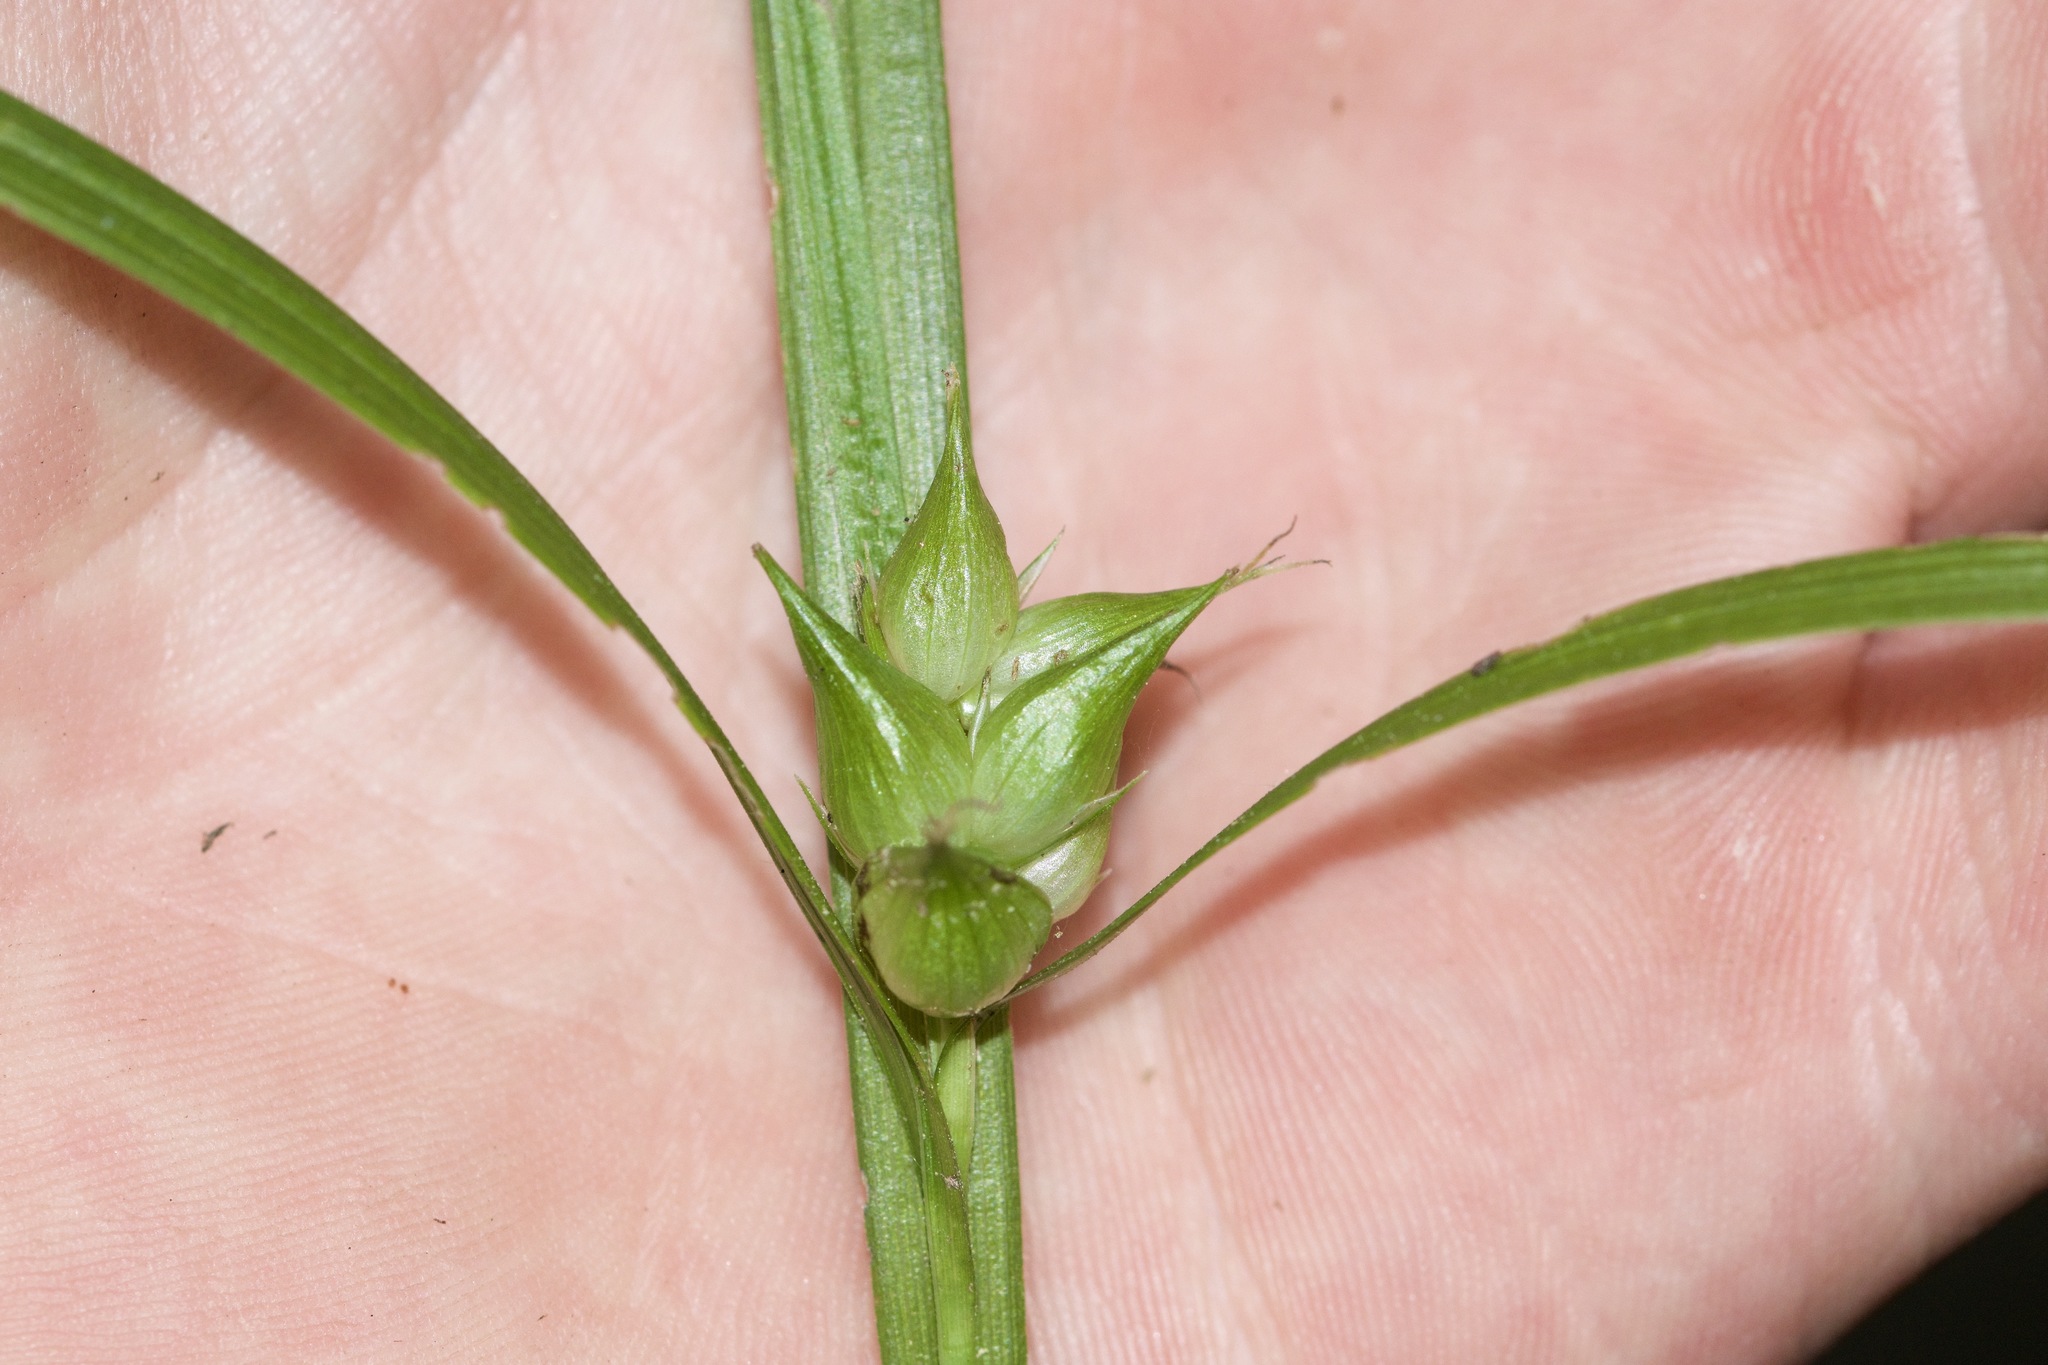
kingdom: Plantae
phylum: Tracheophyta
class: Liliopsida
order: Poales
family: Cyperaceae
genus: Carex
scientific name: Carex intumescens
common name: Greater bladder sedge
